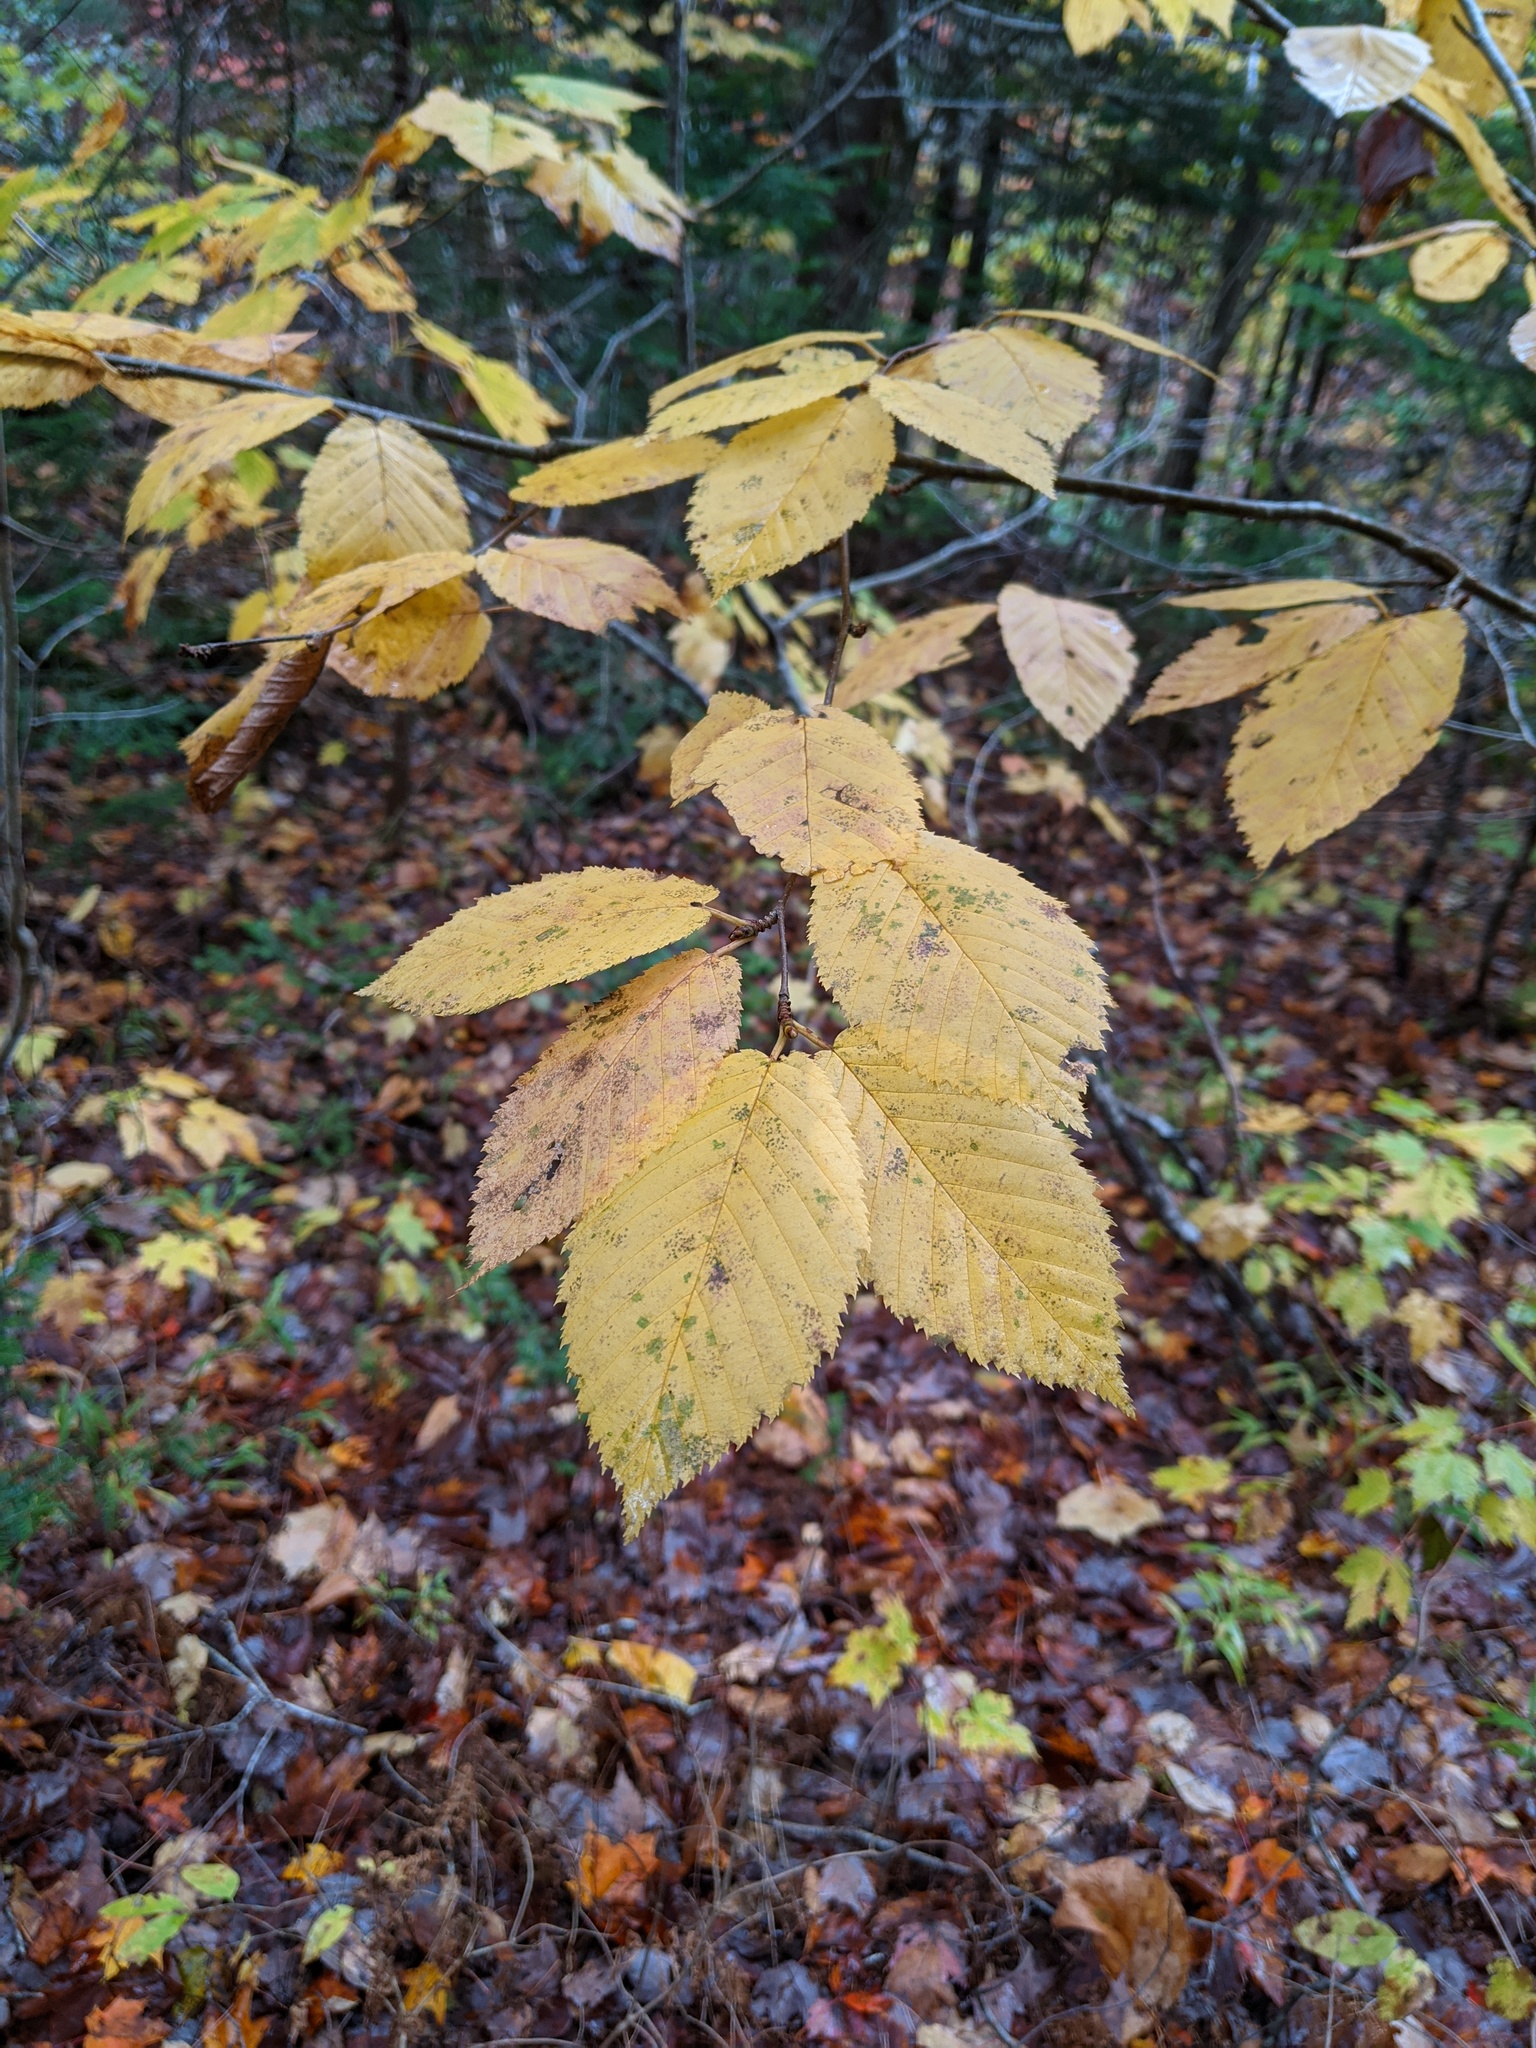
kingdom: Plantae
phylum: Tracheophyta
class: Magnoliopsida
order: Fagales
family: Betulaceae
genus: Betula
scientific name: Betula alleghaniensis
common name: Yellow birch
